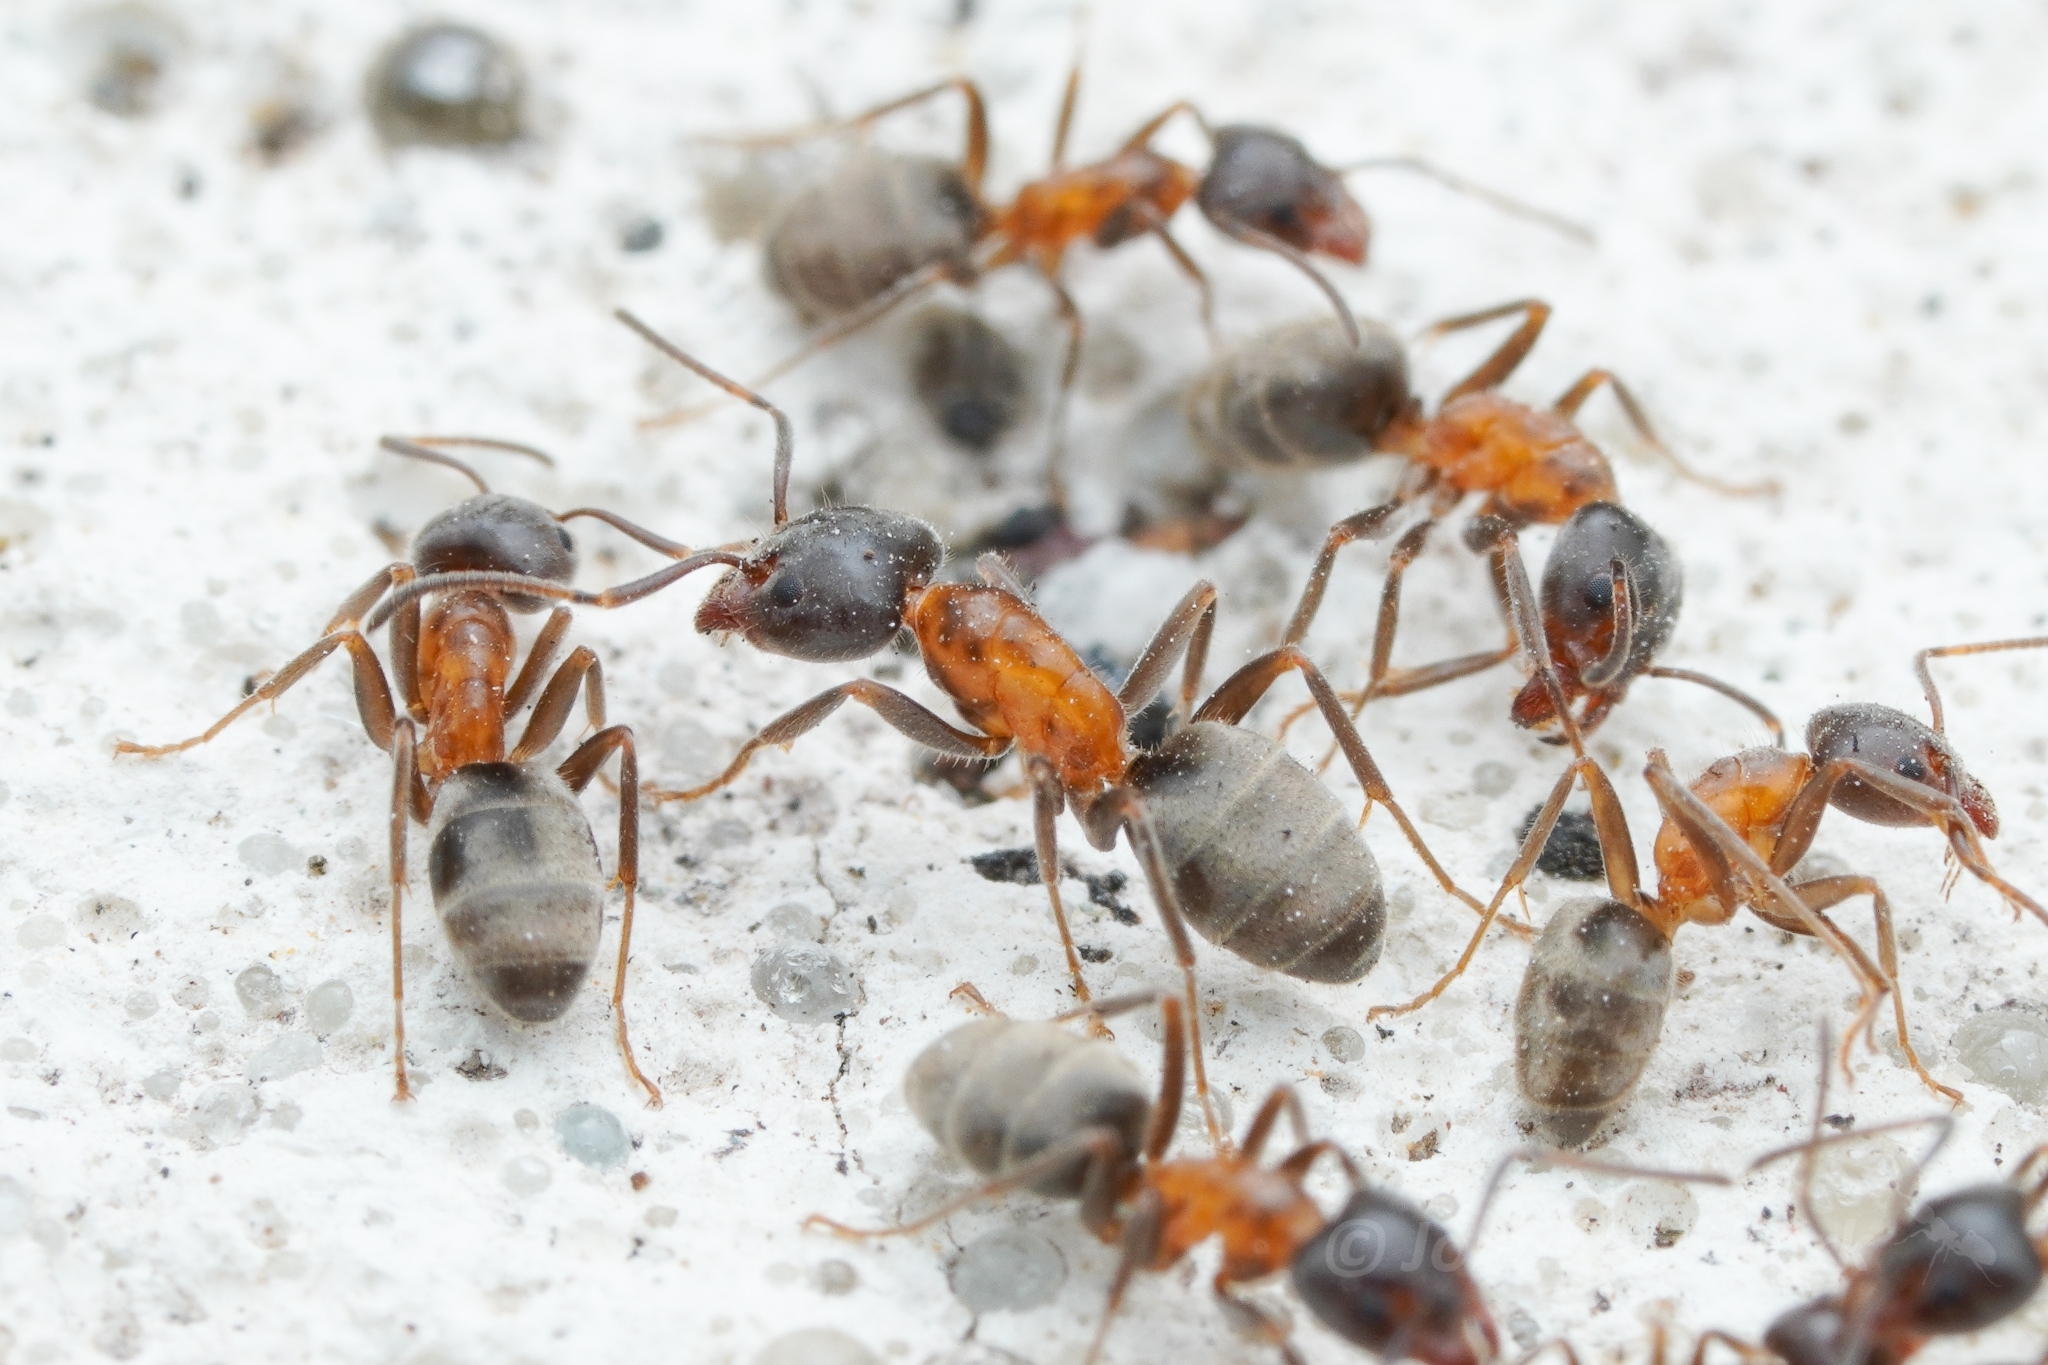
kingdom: Animalia
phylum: Arthropoda
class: Insecta
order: Hymenoptera
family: Formicidae
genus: Liometopum
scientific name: Liometopum occidentale
